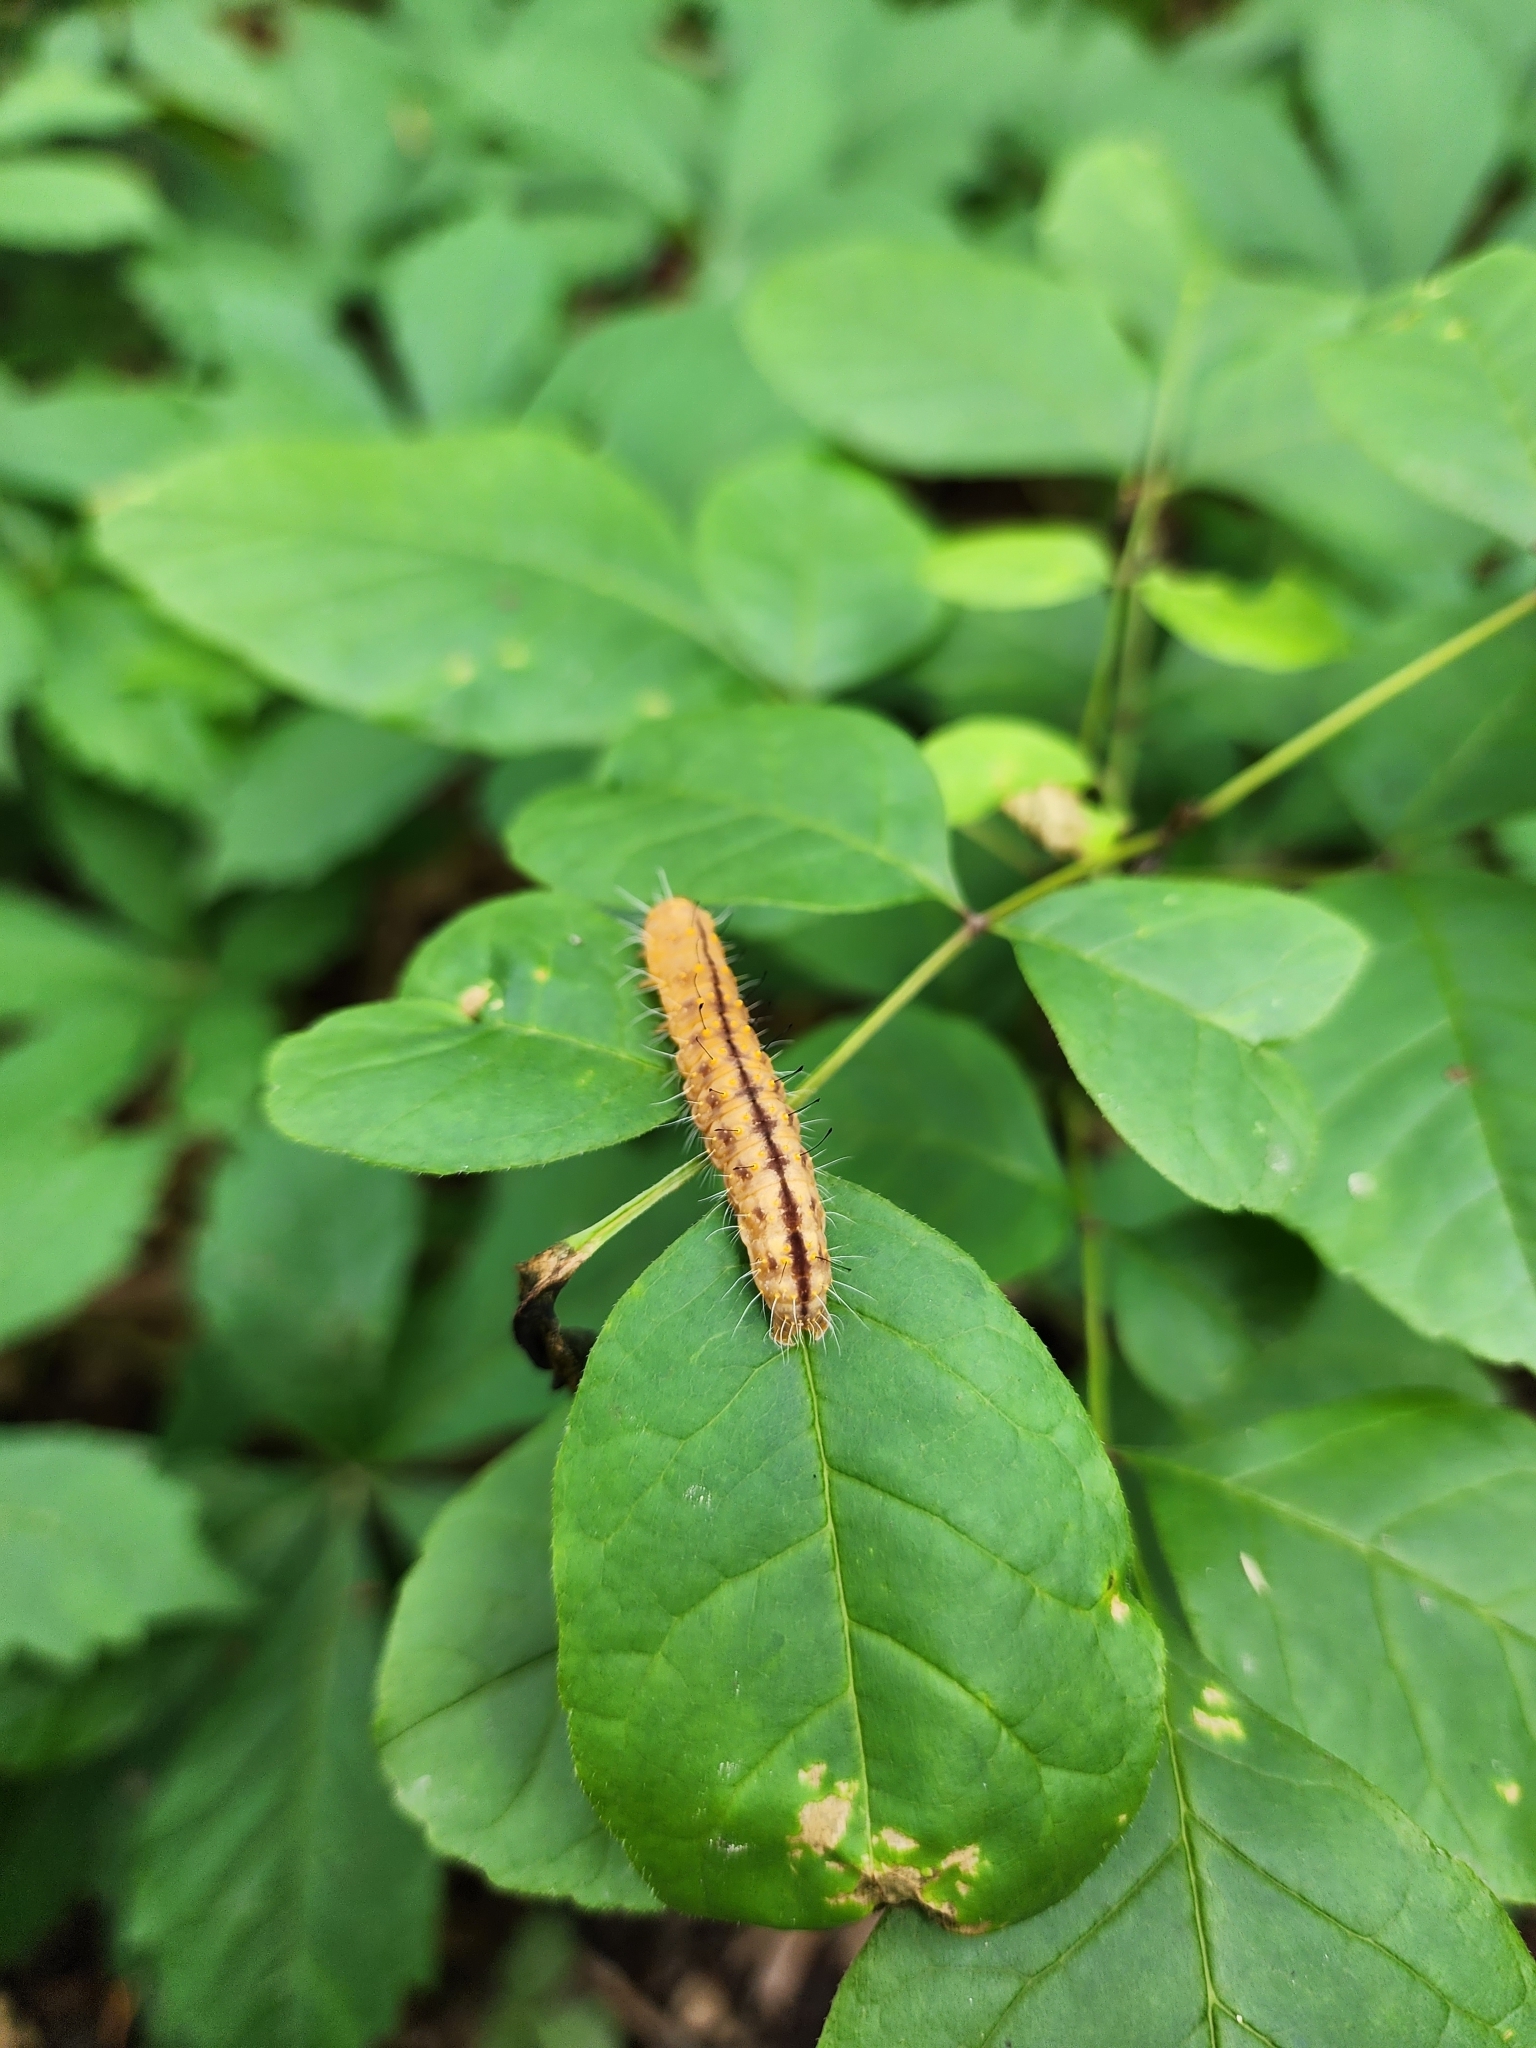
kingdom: Animalia
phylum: Arthropoda
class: Insecta
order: Lepidoptera
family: Noctuidae
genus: Acronicta
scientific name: Acronicta afflicta
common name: Afflicted dagger moth
